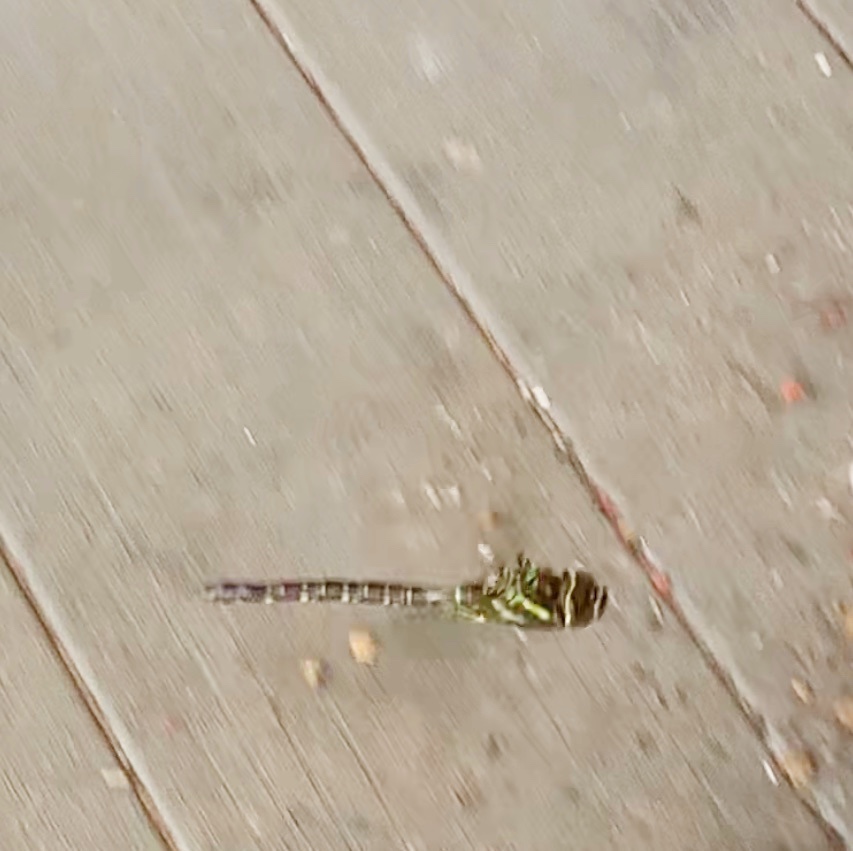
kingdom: Animalia
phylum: Arthropoda
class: Insecta
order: Odonata
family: Aeshnidae
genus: Aeshna
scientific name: Aeshna umbrosa
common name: Shadow darner
